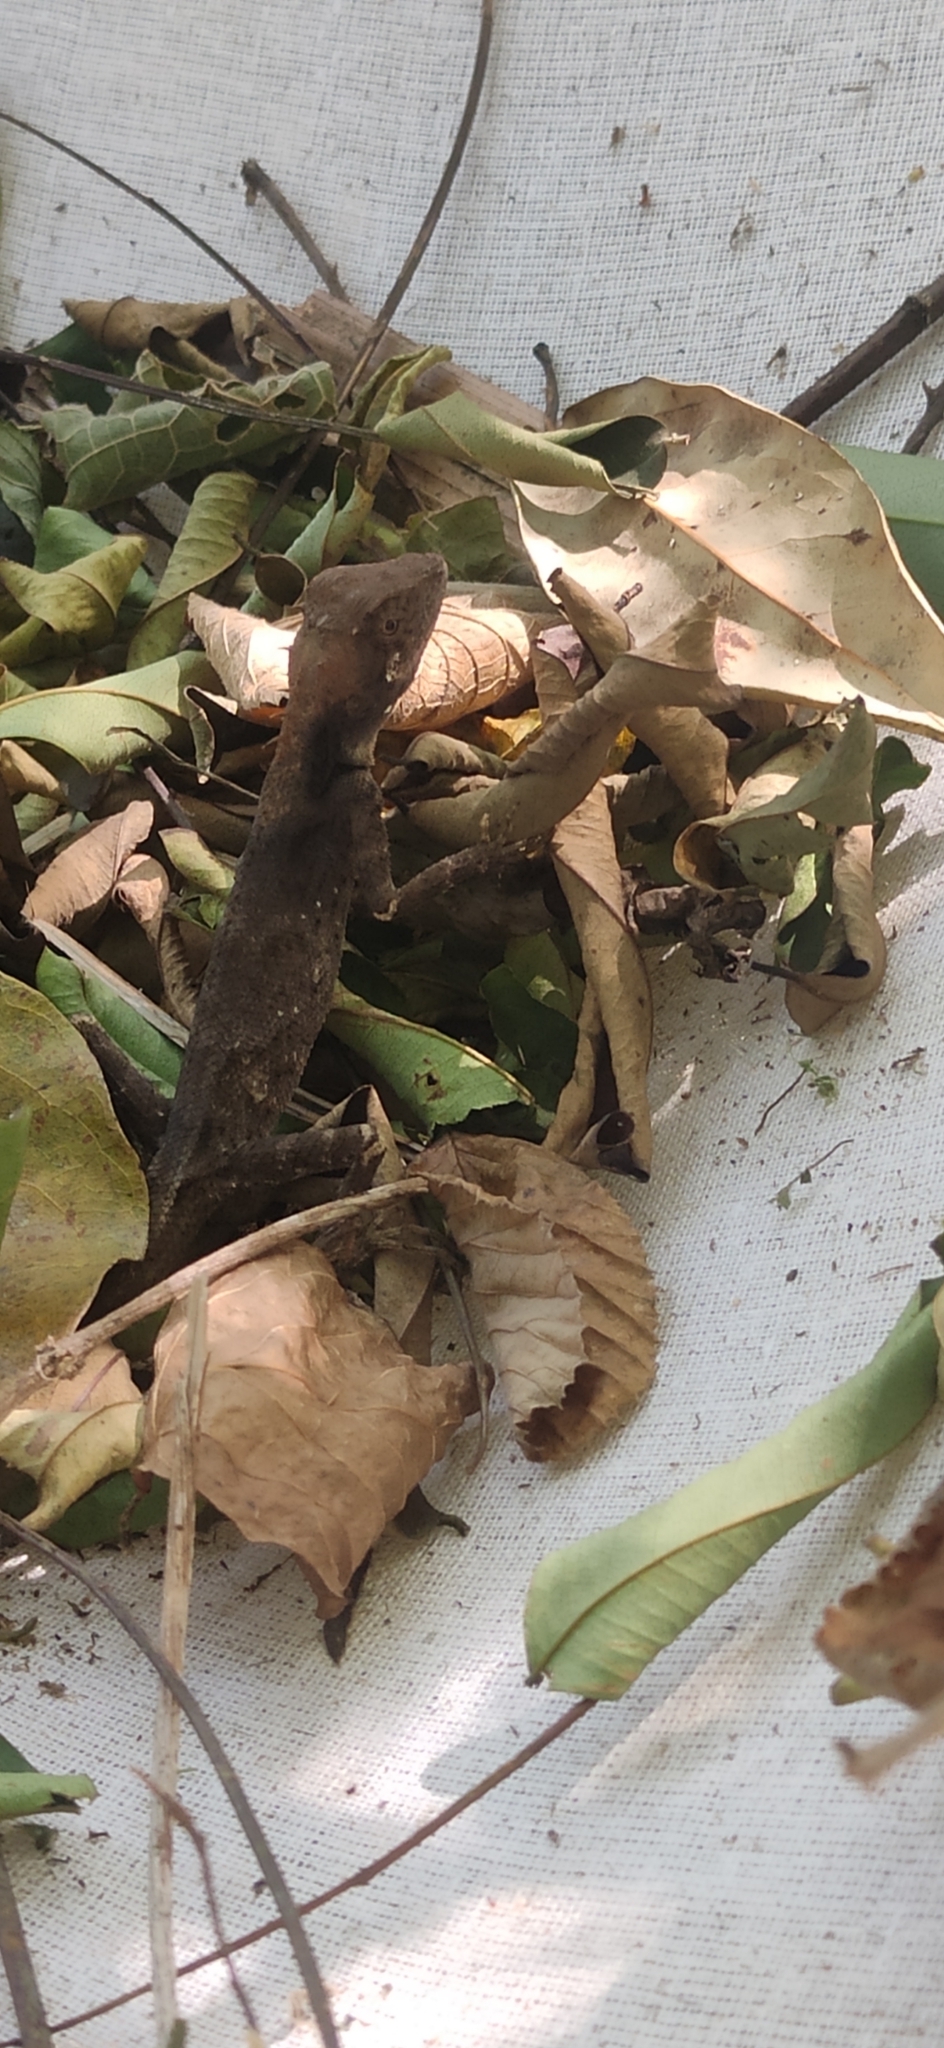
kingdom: Animalia
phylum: Chordata
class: Squamata
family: Agamidae
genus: Monilesaurus
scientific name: Monilesaurus ellioti
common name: Elliot's forest lizard
